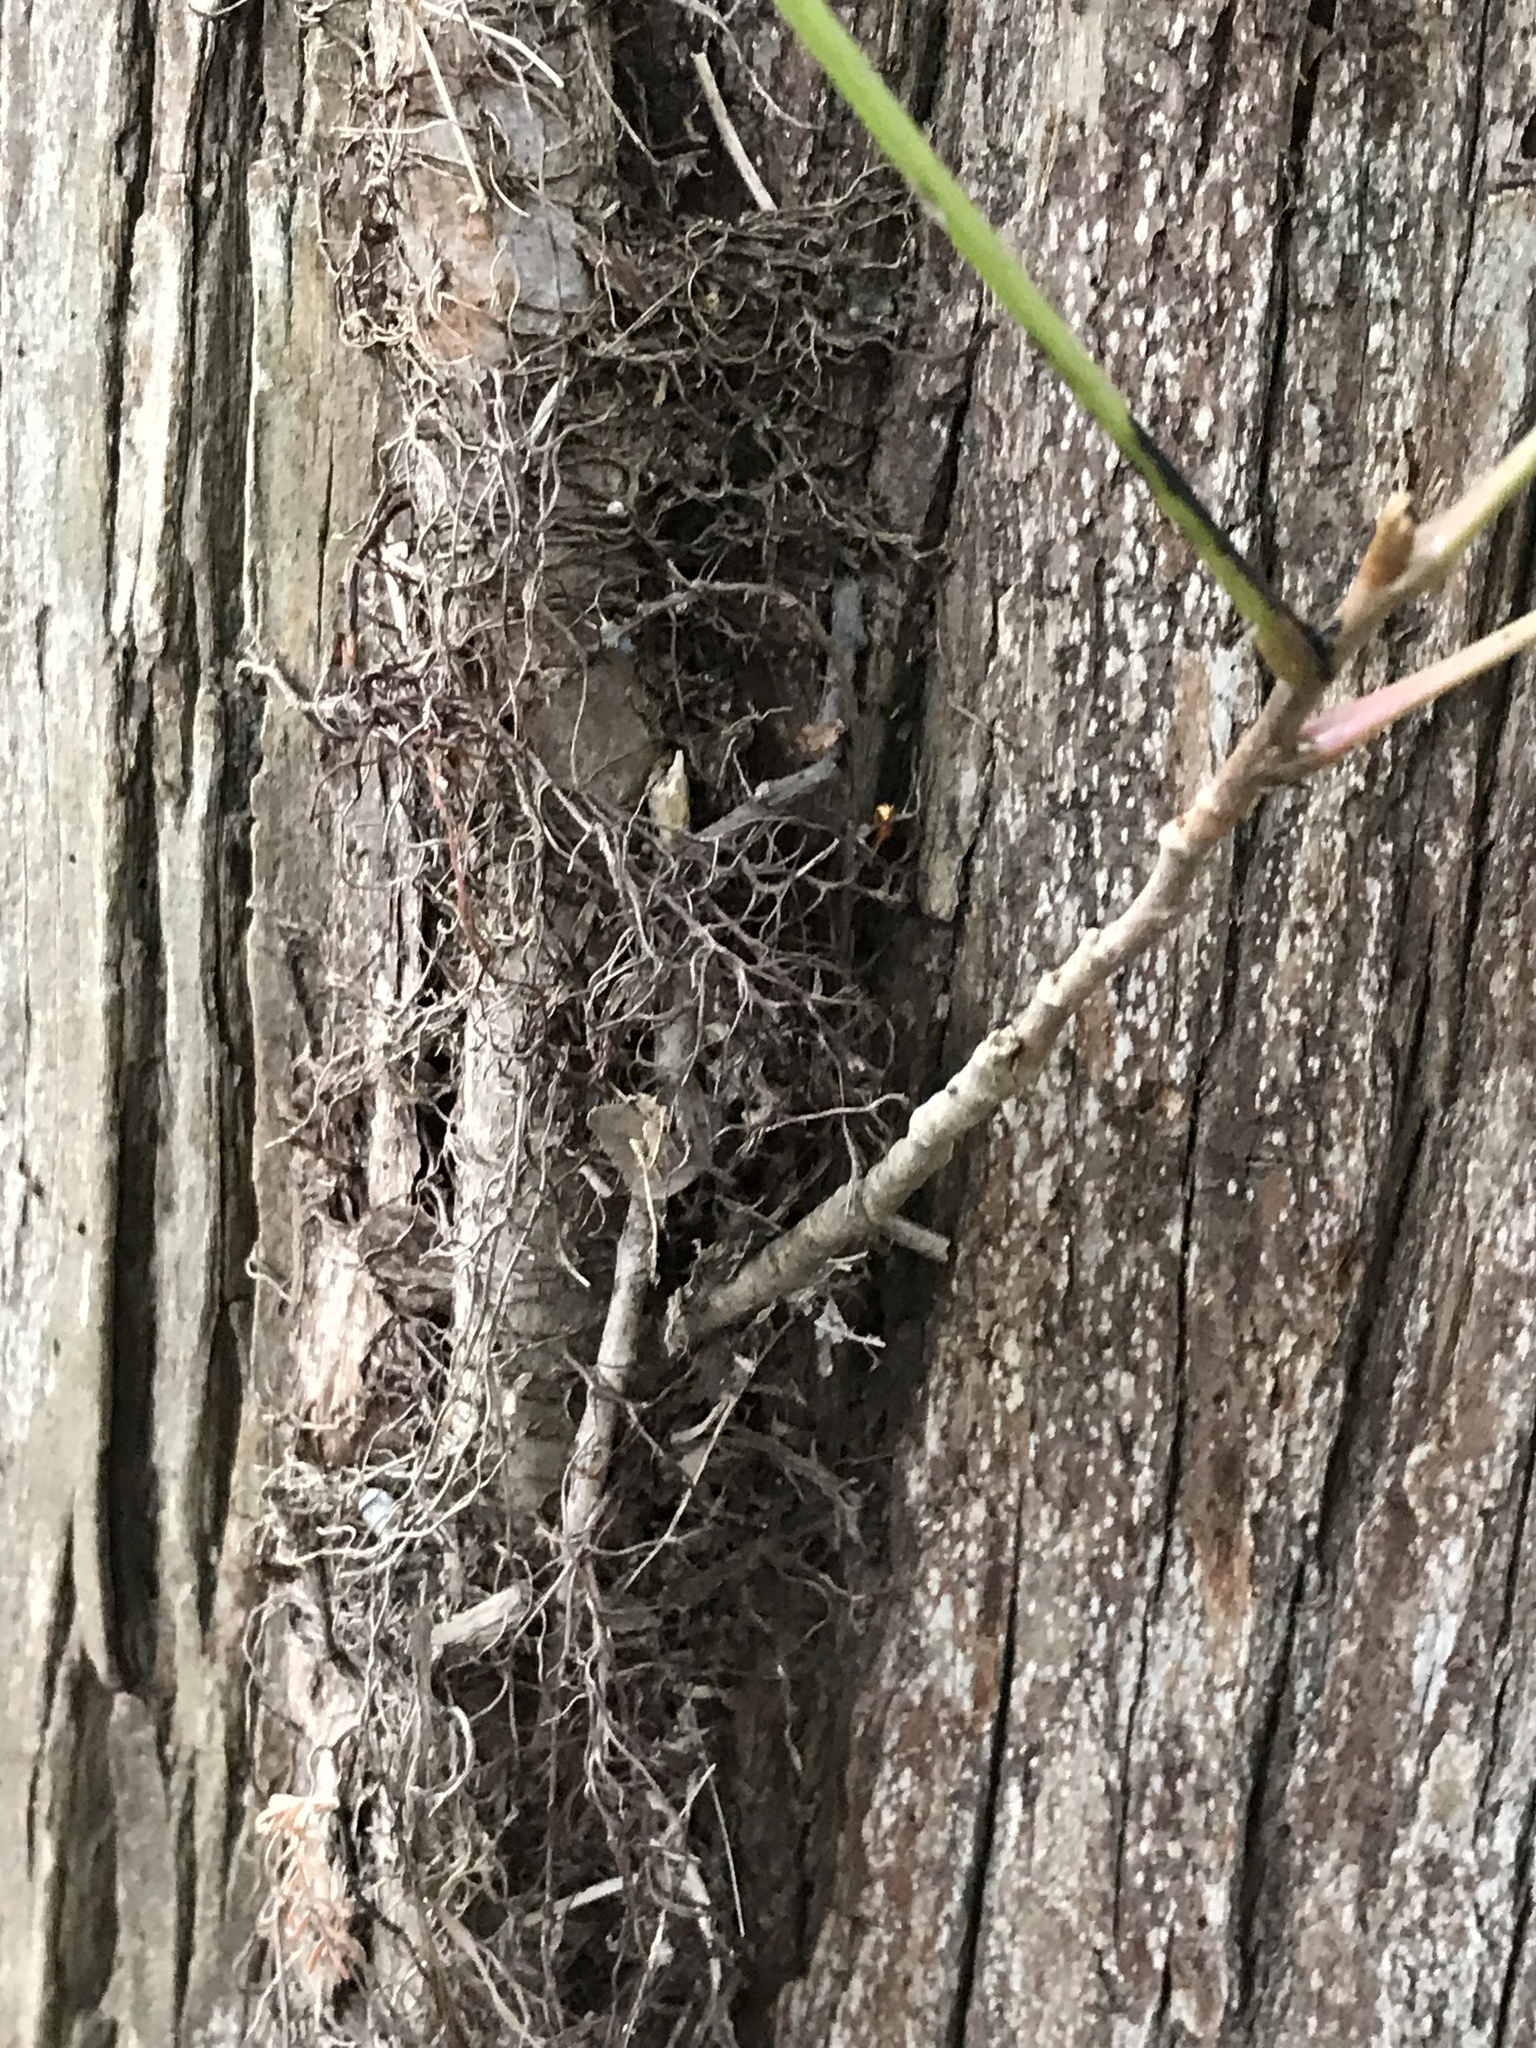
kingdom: Plantae
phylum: Tracheophyta
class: Magnoliopsida
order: Sapindales
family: Anacardiaceae
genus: Toxicodendron
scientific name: Toxicodendron radicans
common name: Poison ivy
